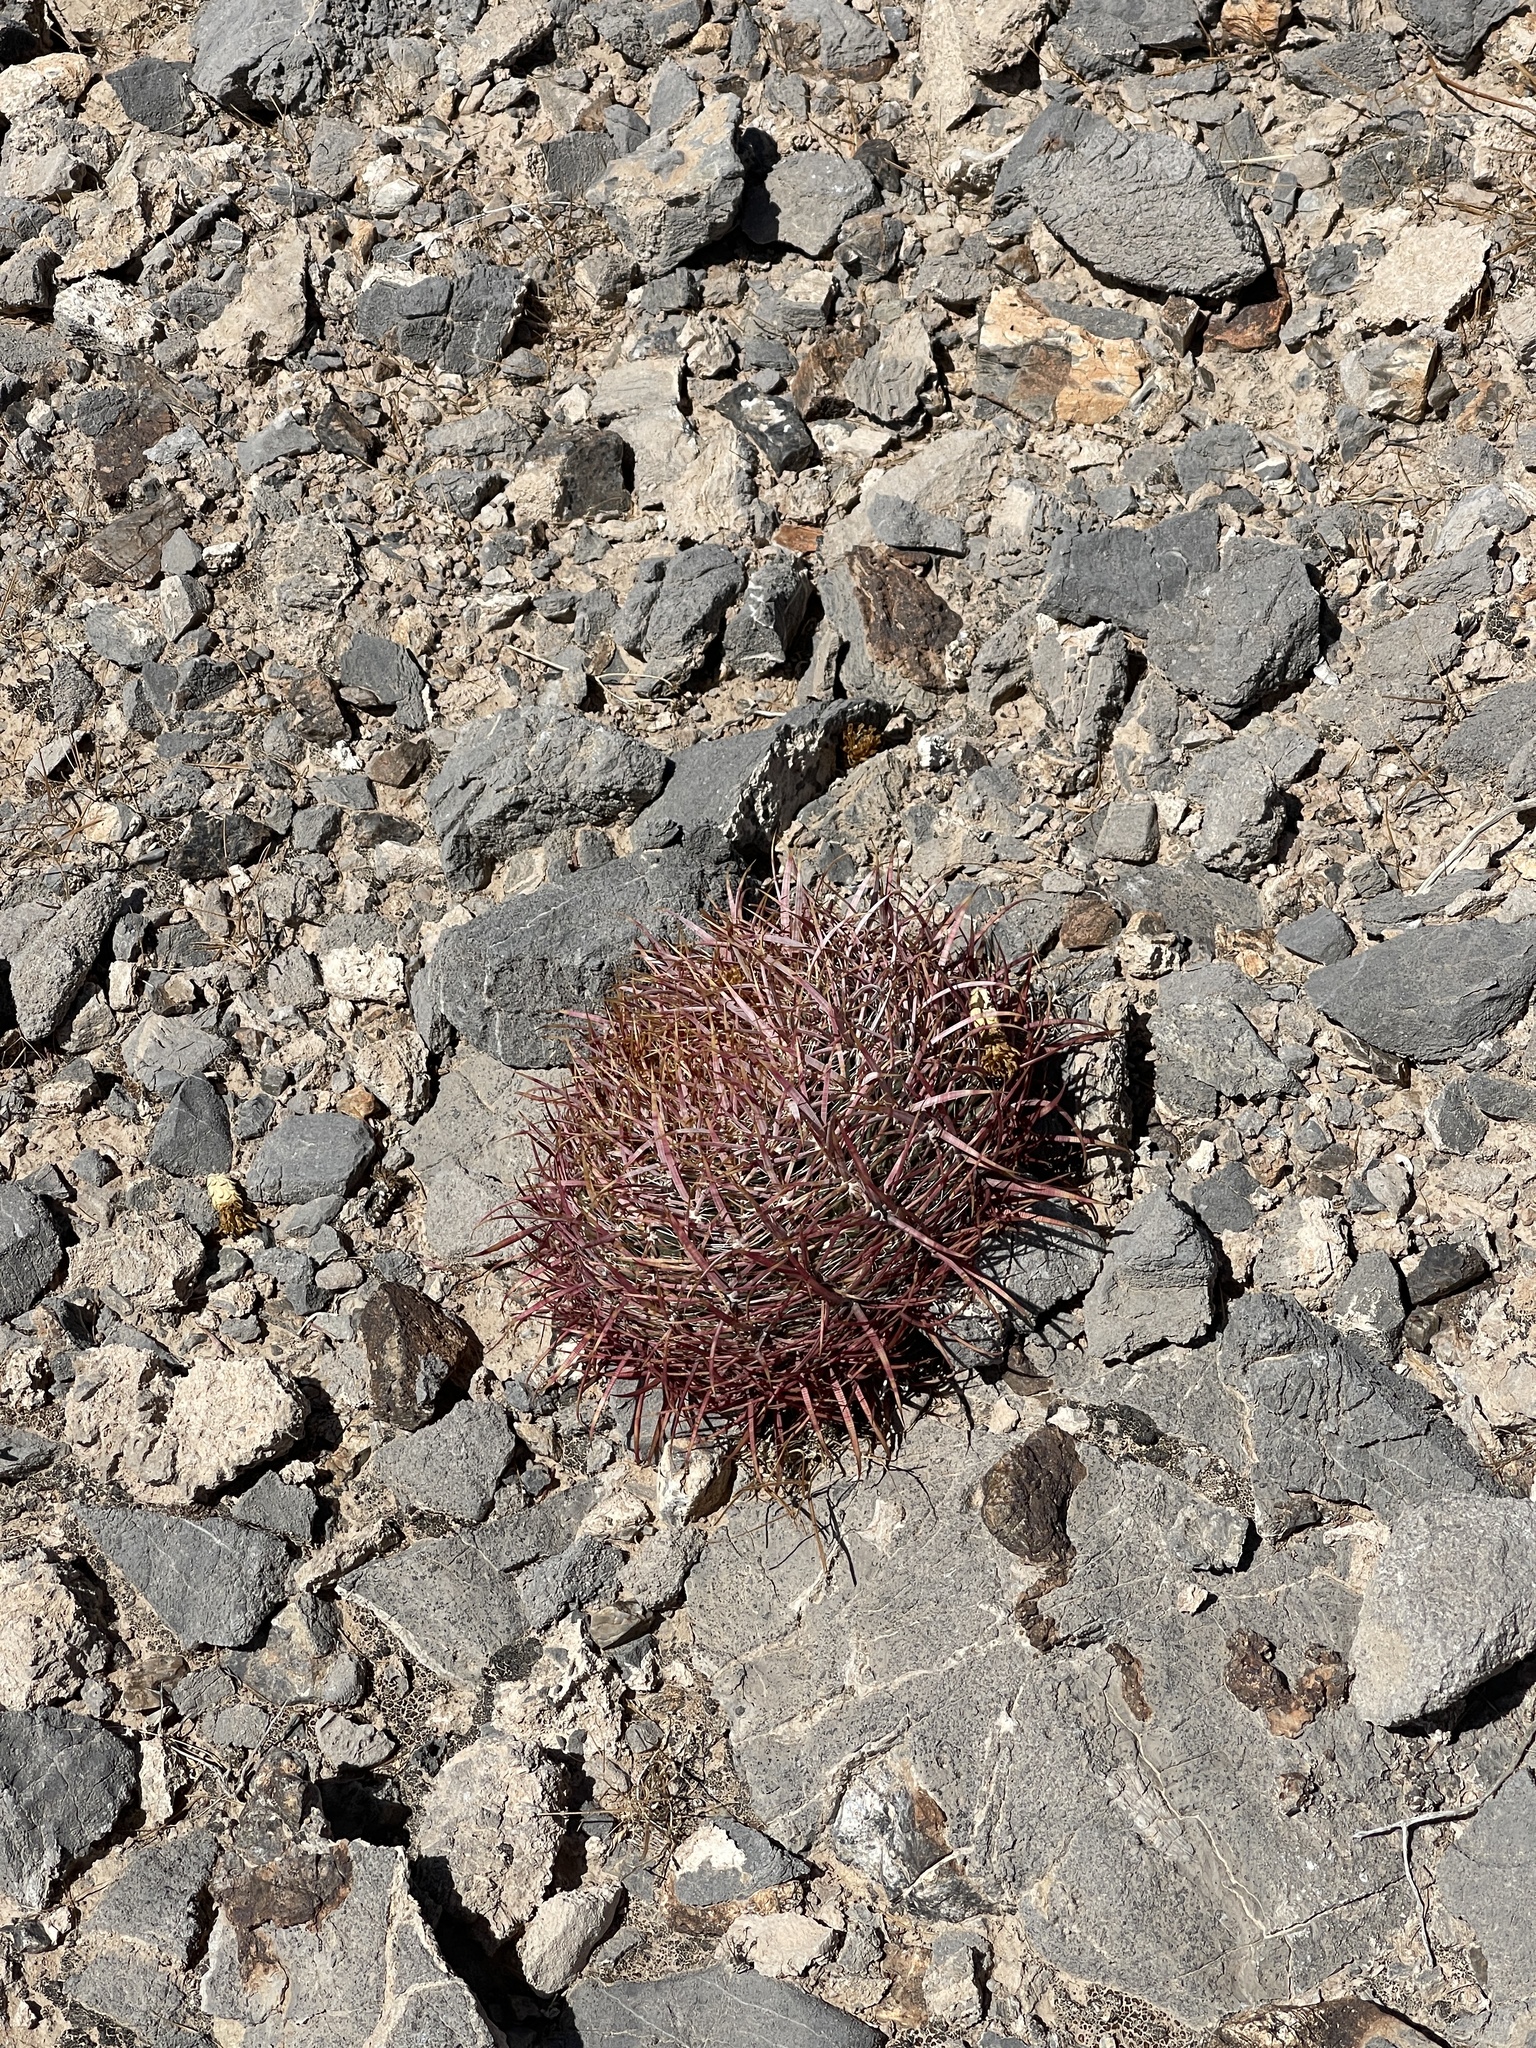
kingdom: Plantae
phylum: Tracheophyta
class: Magnoliopsida
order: Caryophyllales
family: Cactaceae
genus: Ferocactus
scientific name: Ferocactus cylindraceus
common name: California barrel cactus
